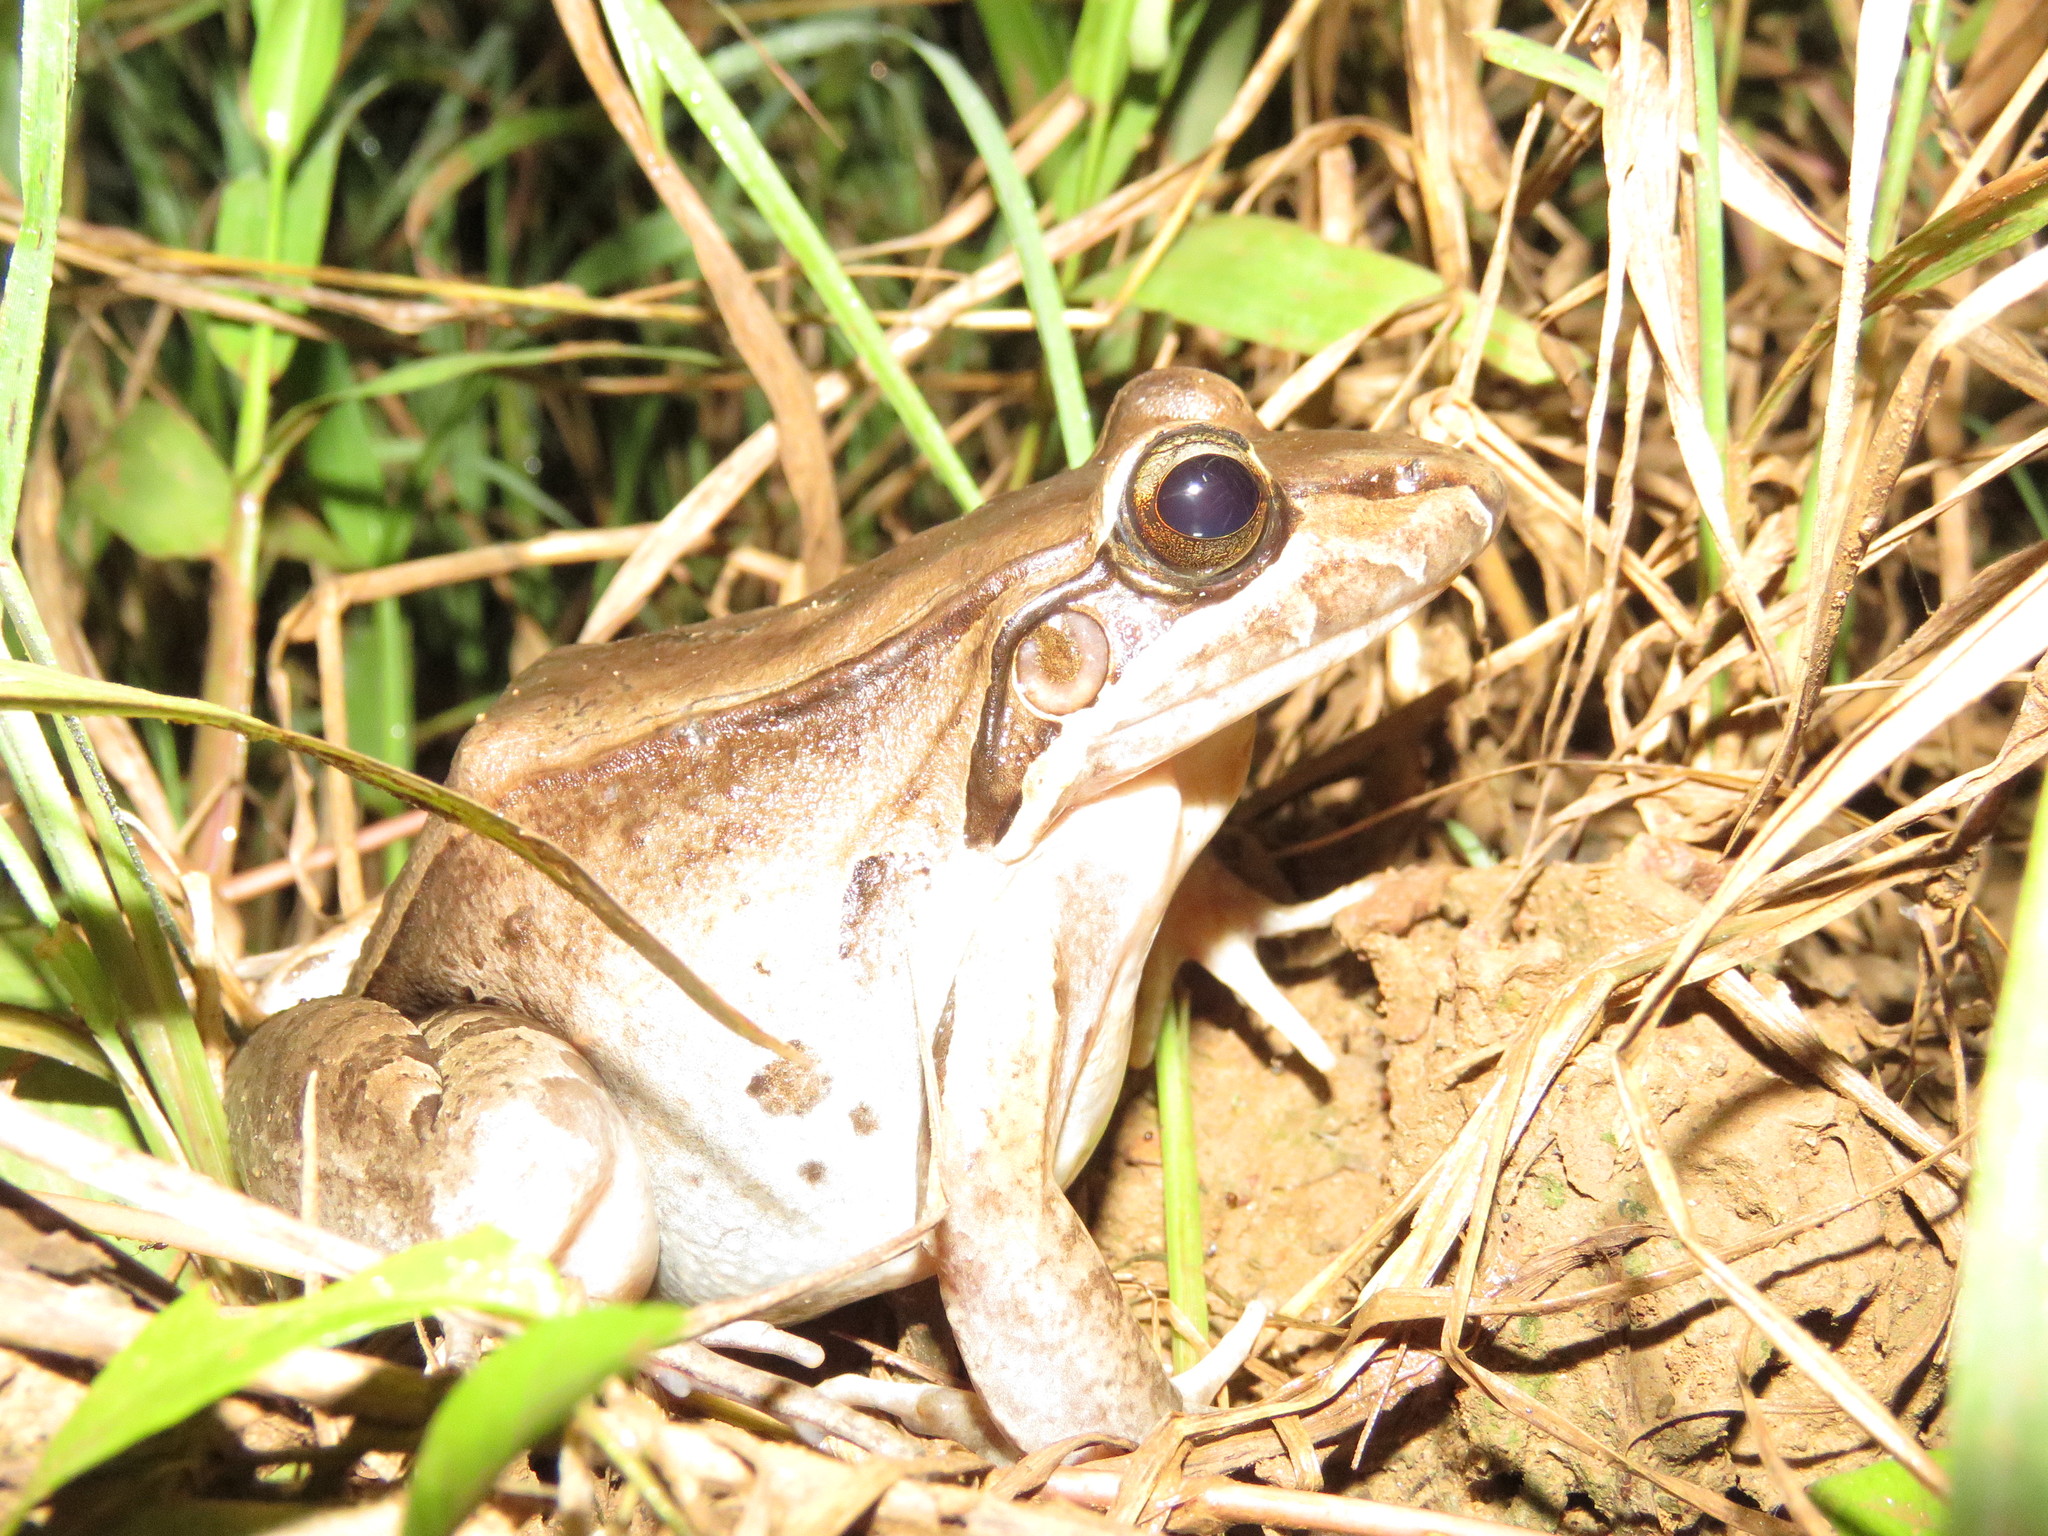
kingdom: Animalia
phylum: Chordata
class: Amphibia
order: Anura
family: Leptodactylidae
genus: Leptodactylus
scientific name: Leptodactylus bolivianus
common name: Bolivian white-lipped frog
